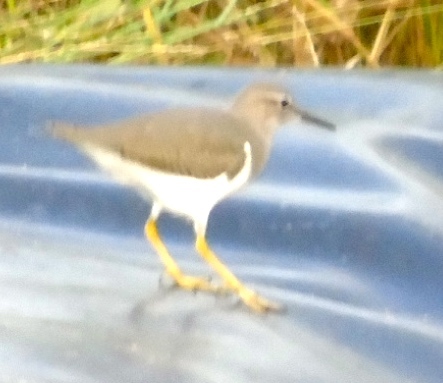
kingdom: Animalia
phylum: Chordata
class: Aves
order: Charadriiformes
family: Scolopacidae
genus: Actitis
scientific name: Actitis macularius
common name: Spotted sandpiper
